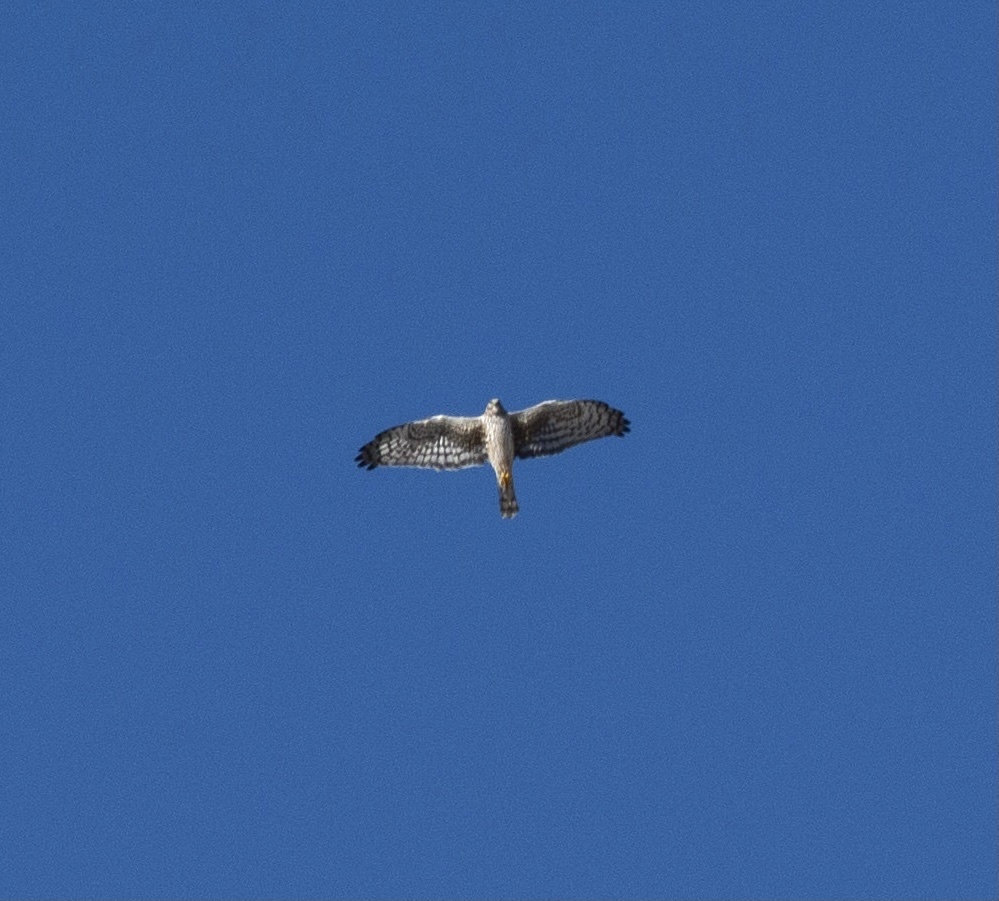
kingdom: Animalia
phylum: Chordata
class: Aves
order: Accipitriformes
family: Accipitridae
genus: Circus
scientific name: Circus cyaneus
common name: Hen harrier
